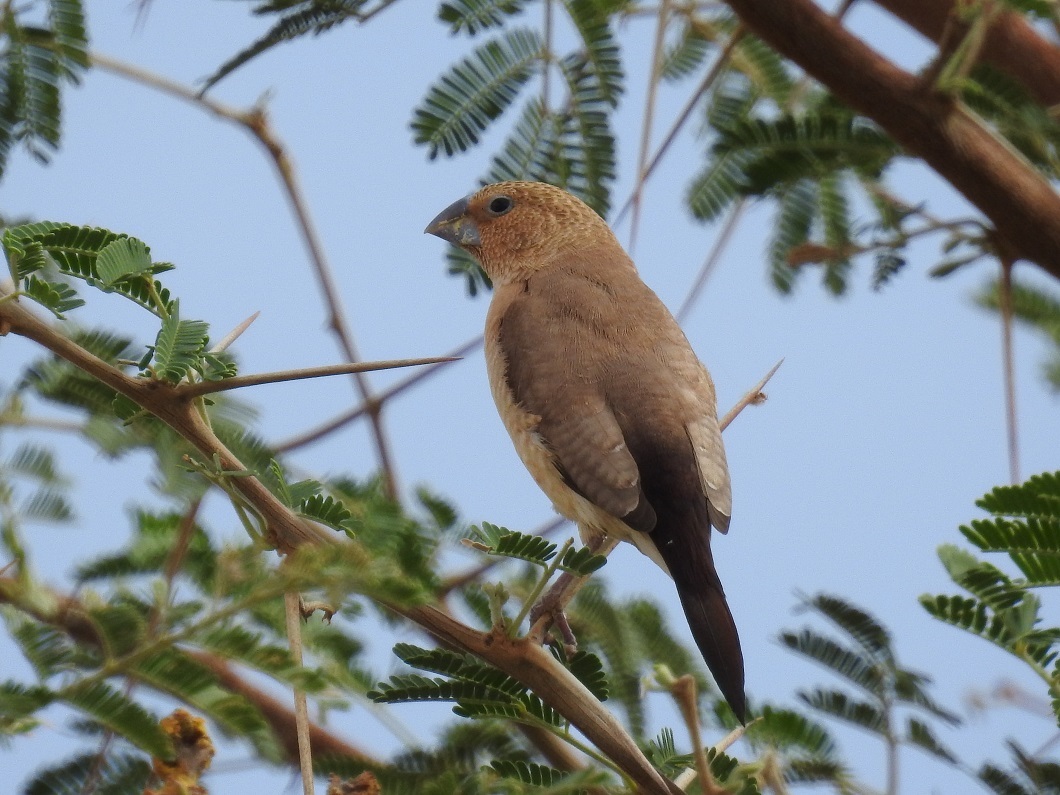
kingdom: Animalia
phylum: Chordata
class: Aves
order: Passeriformes
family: Estrildidae
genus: Euodice
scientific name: Euodice cantans
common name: African silverbill
